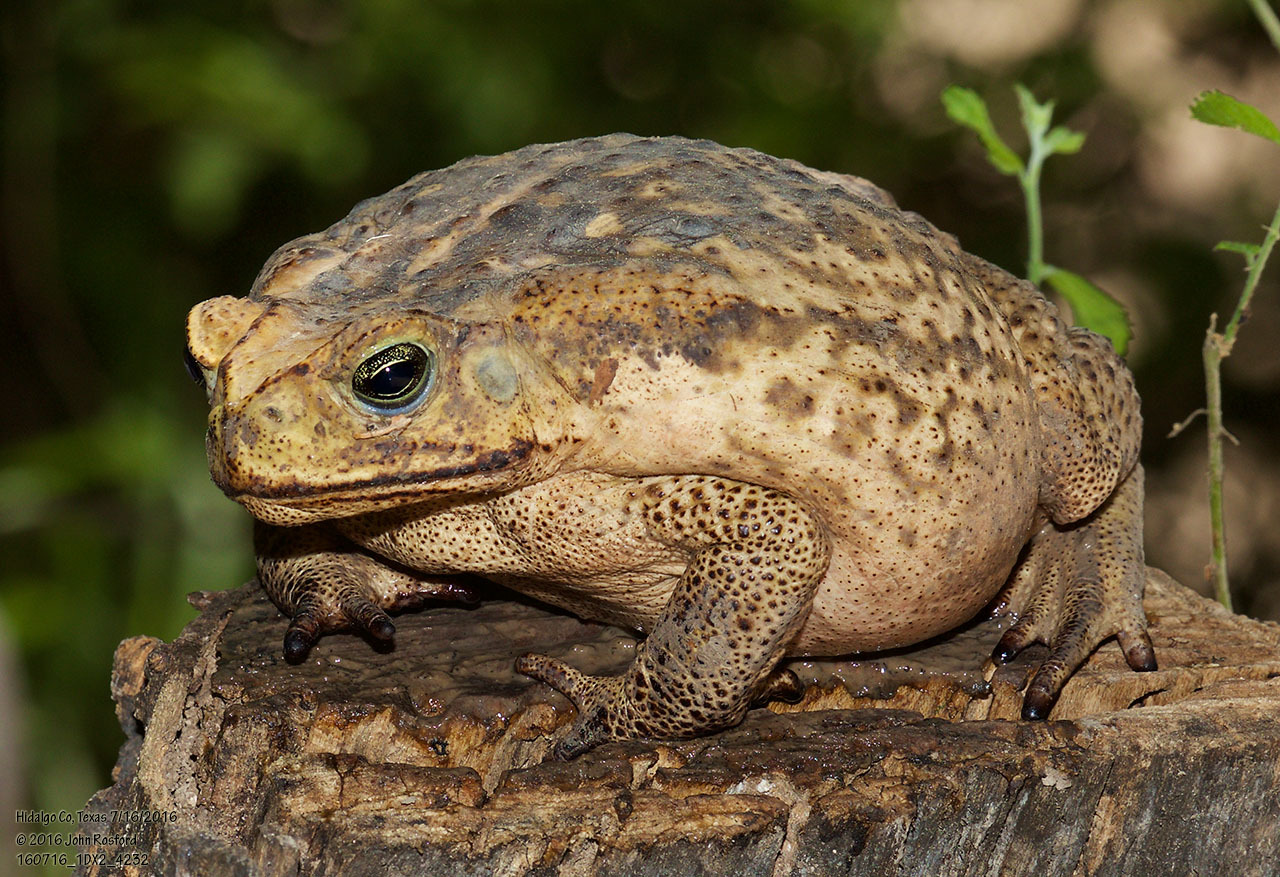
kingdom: Animalia
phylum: Chordata
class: Amphibia
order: Anura
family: Bufonidae
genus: Rhinella
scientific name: Rhinella horribilis
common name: Mesoamerican cane toad
